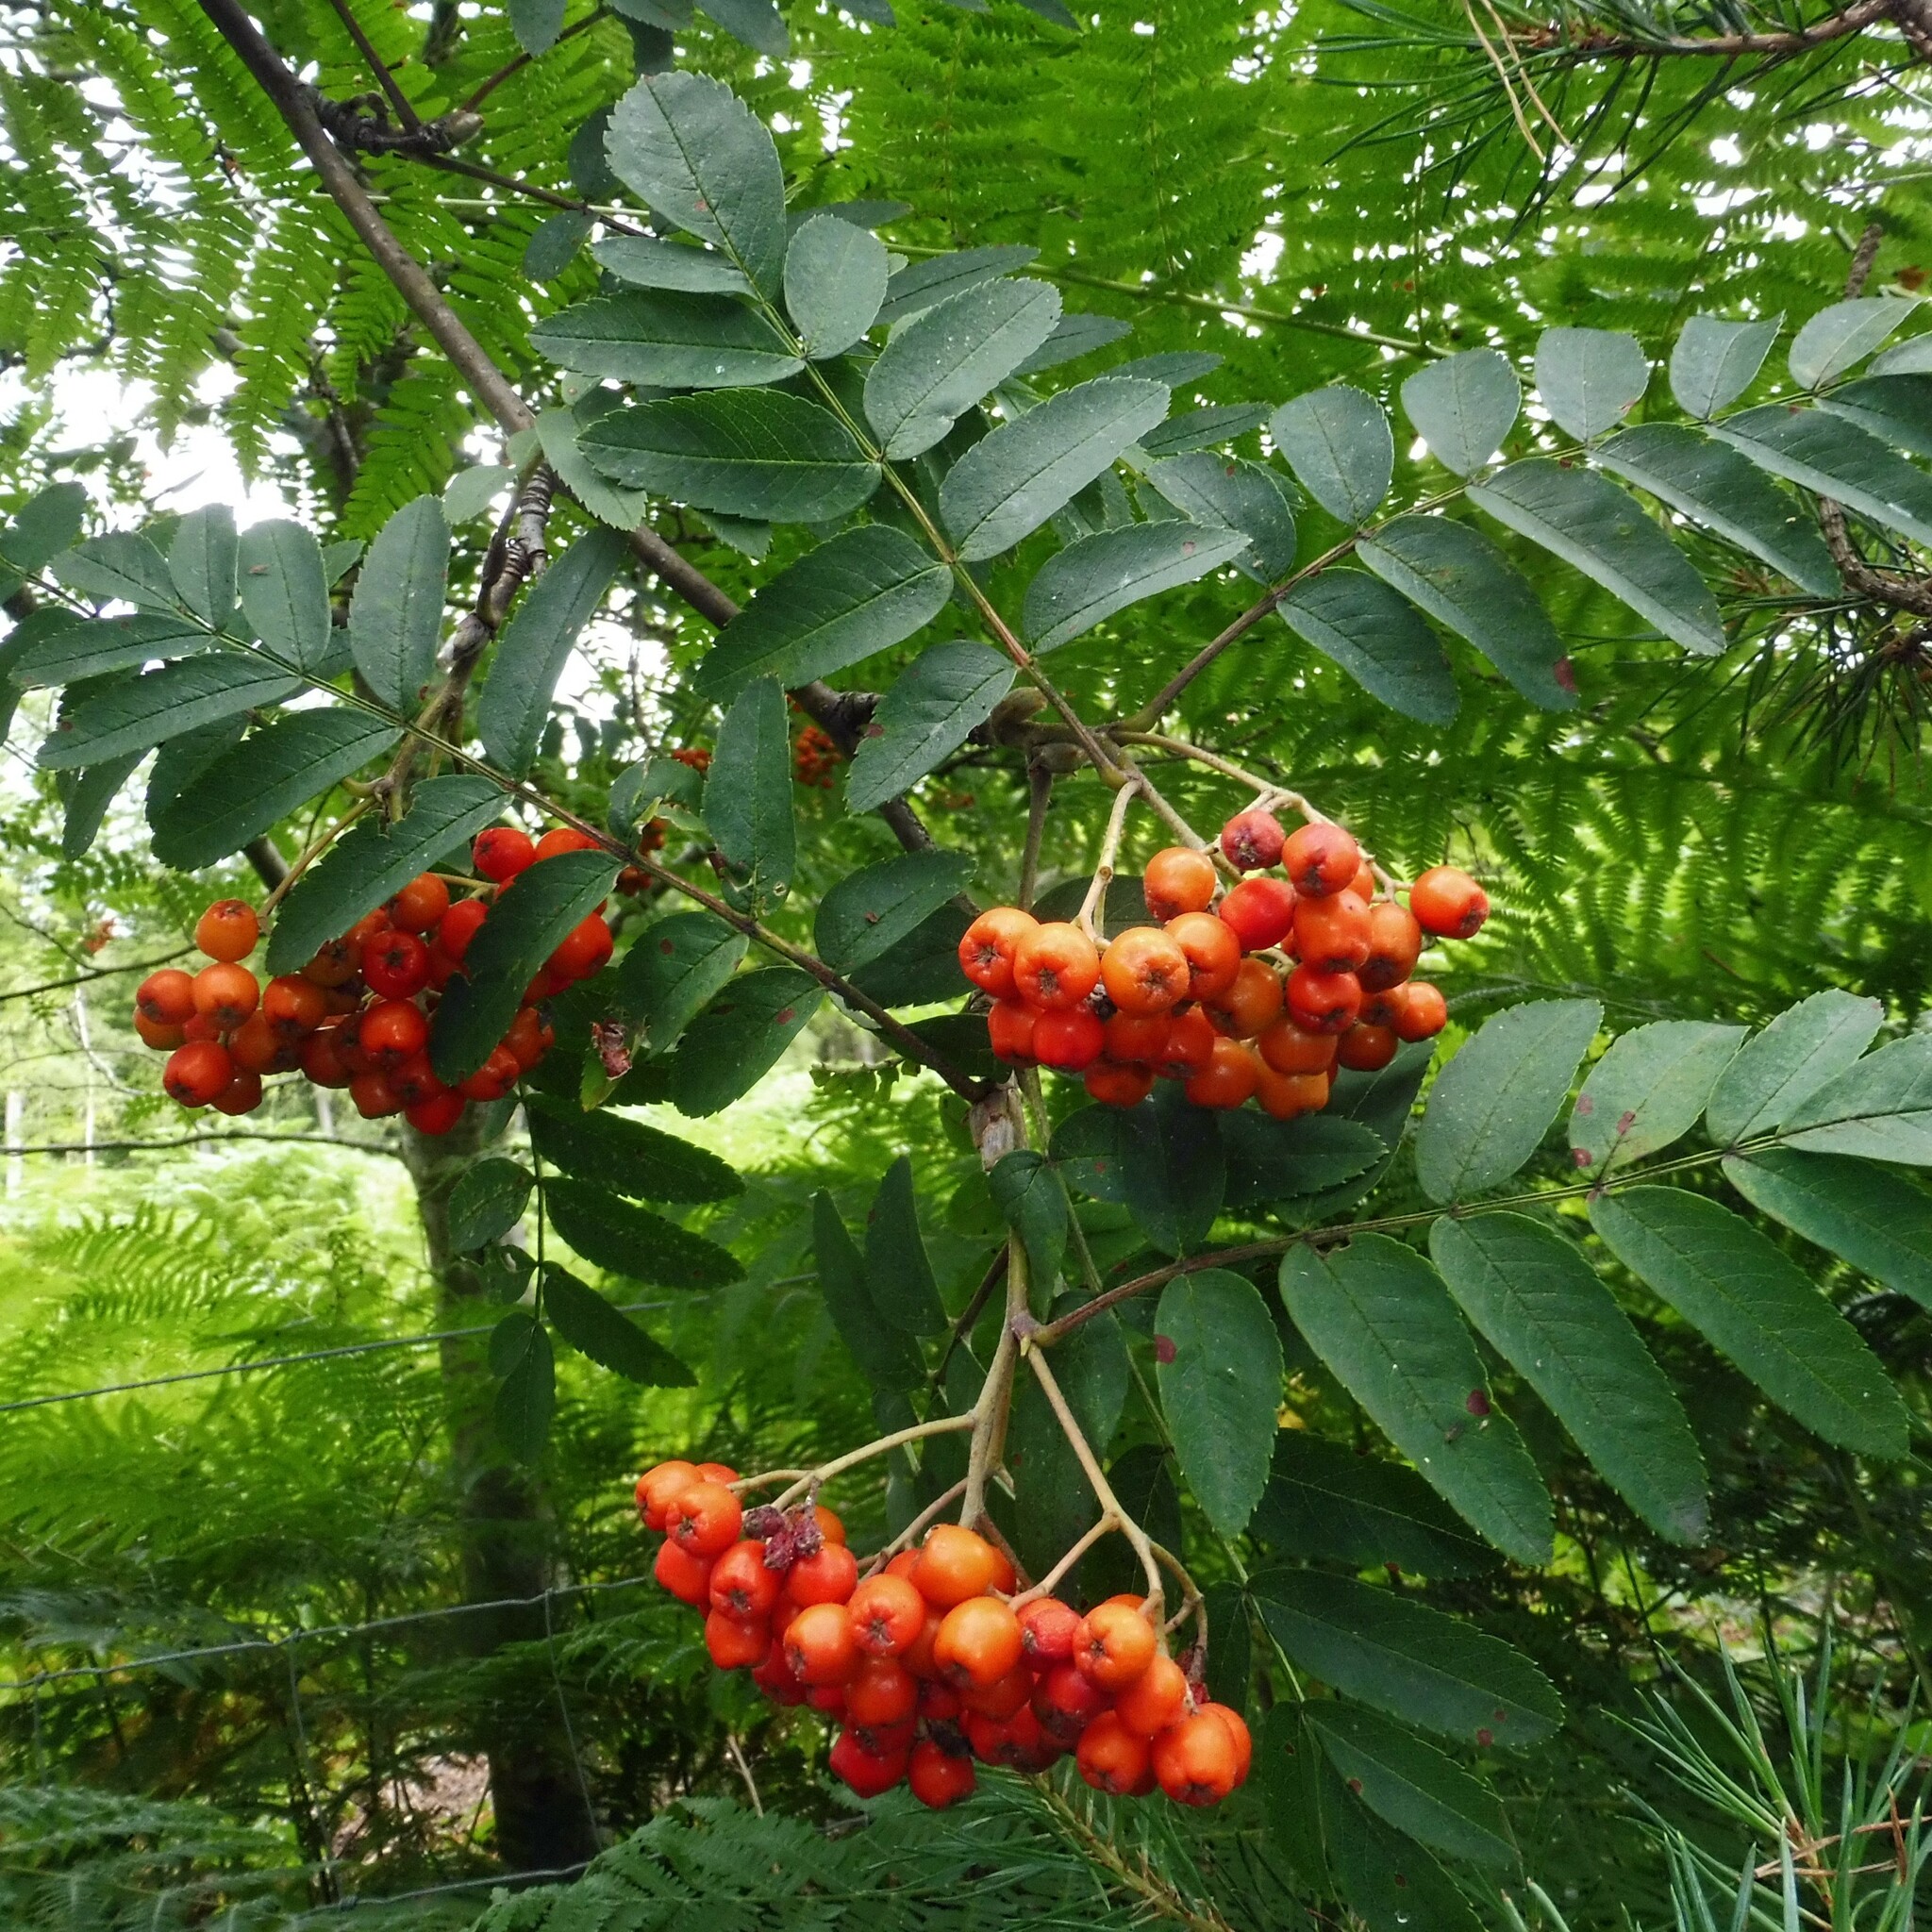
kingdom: Plantae
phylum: Tracheophyta
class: Magnoliopsida
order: Rosales
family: Rosaceae
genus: Sorbus
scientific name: Sorbus aucuparia
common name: Rowan
